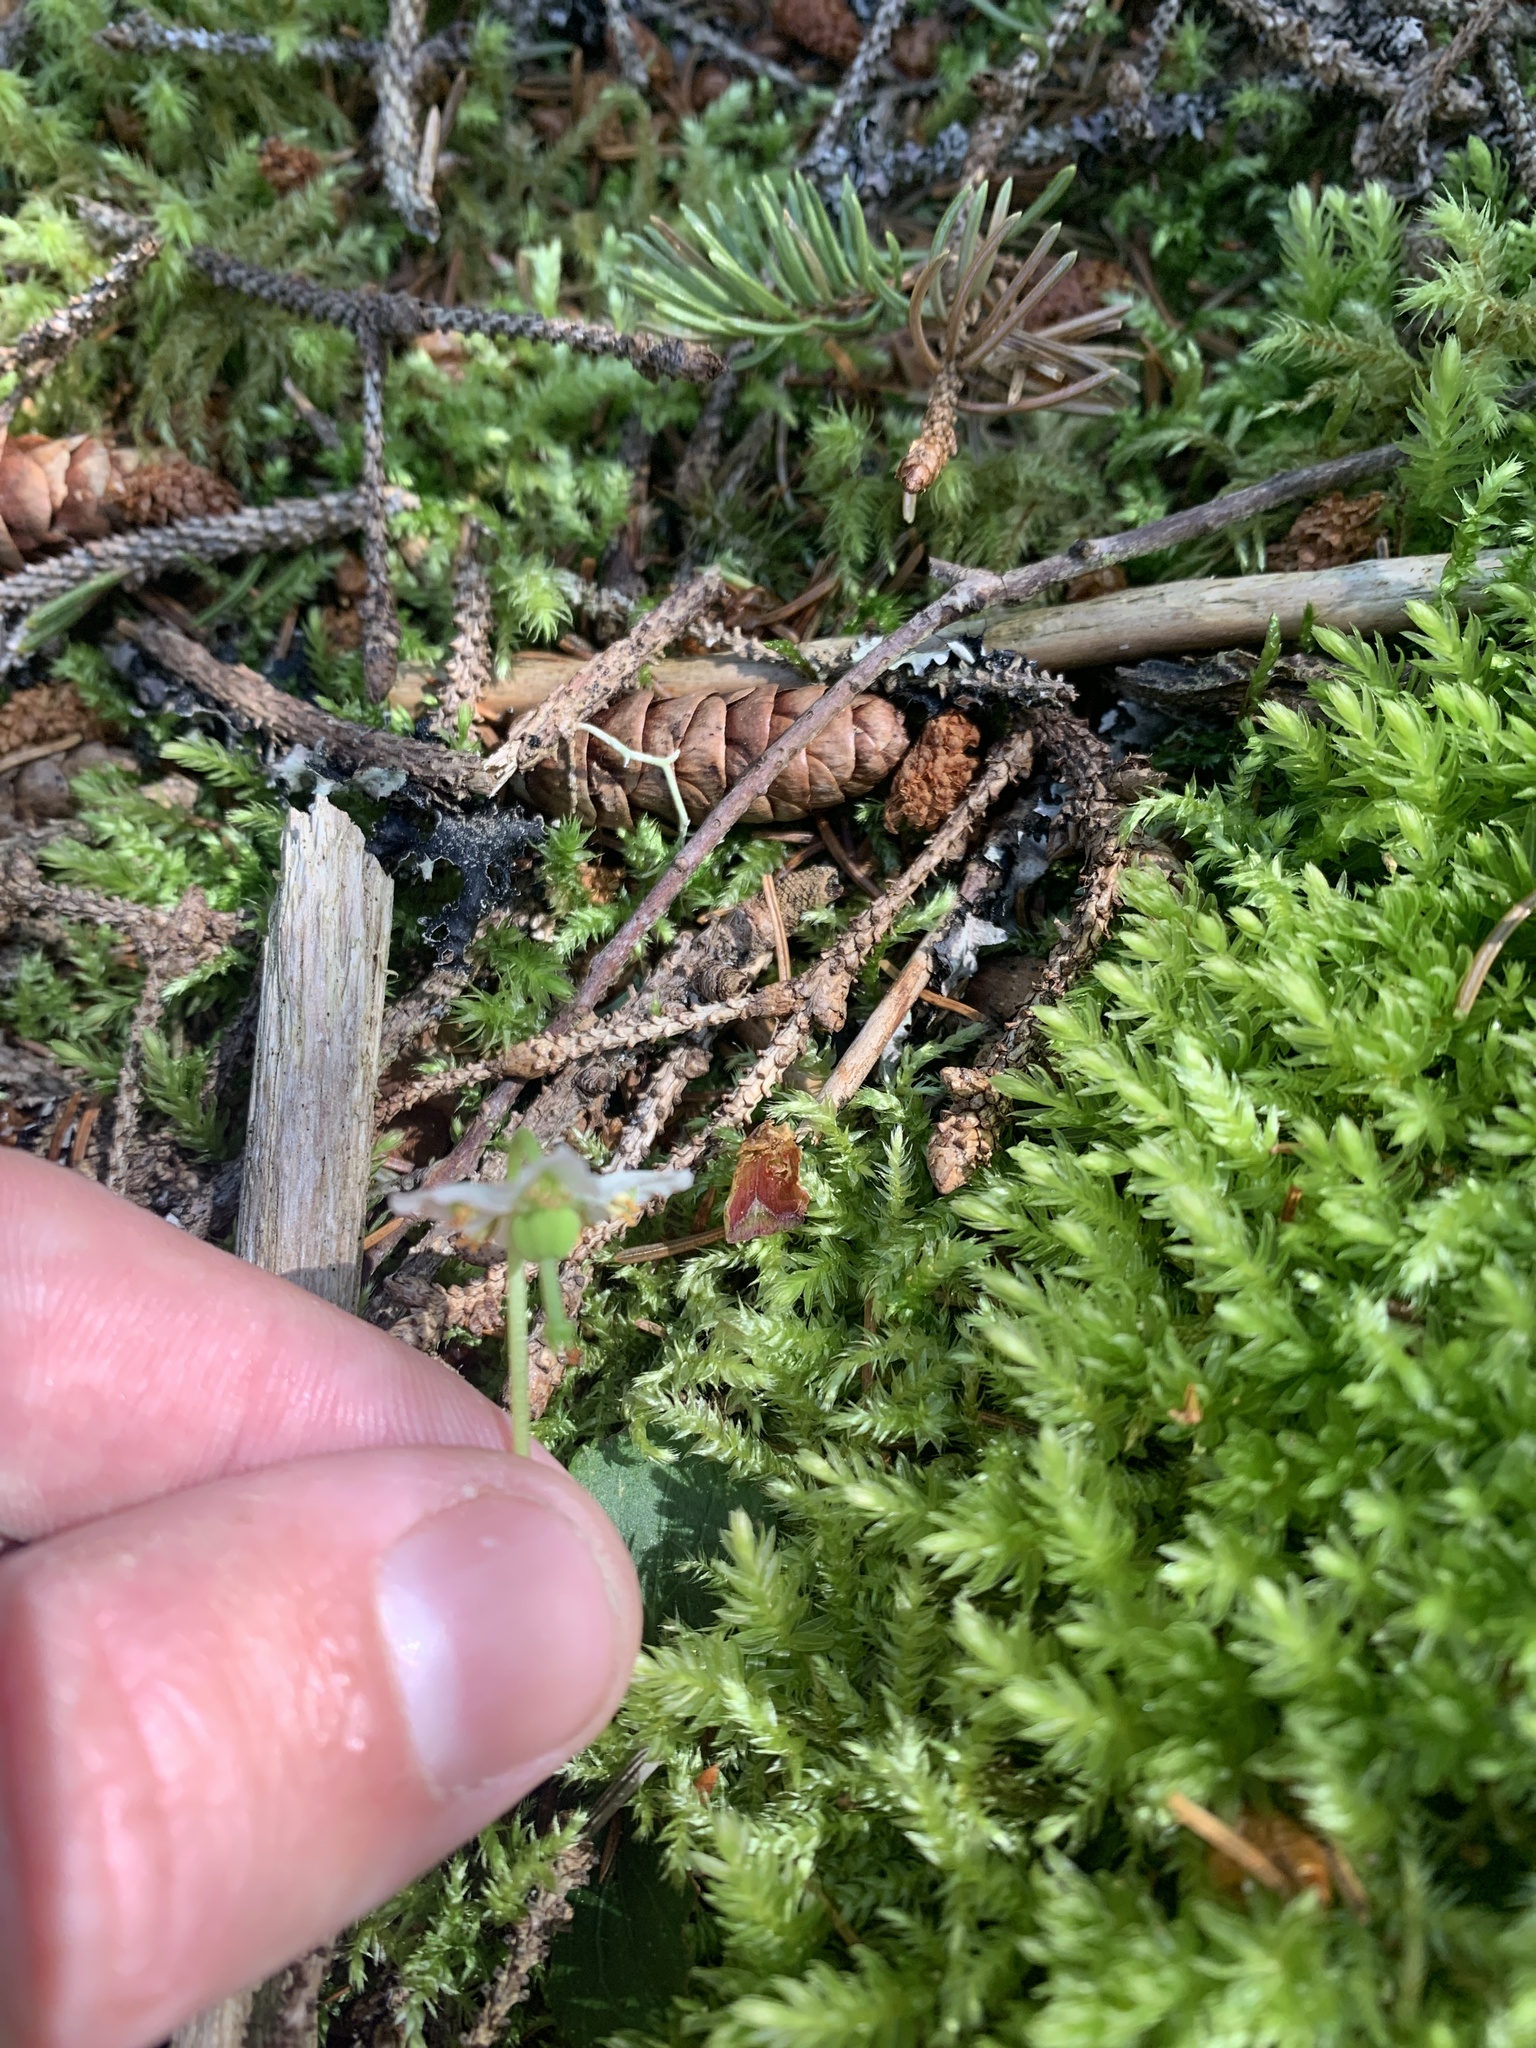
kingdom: Plantae
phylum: Tracheophyta
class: Magnoliopsida
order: Ericales
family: Ericaceae
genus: Moneses
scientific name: Moneses uniflora
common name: One-flowered wintergreen
